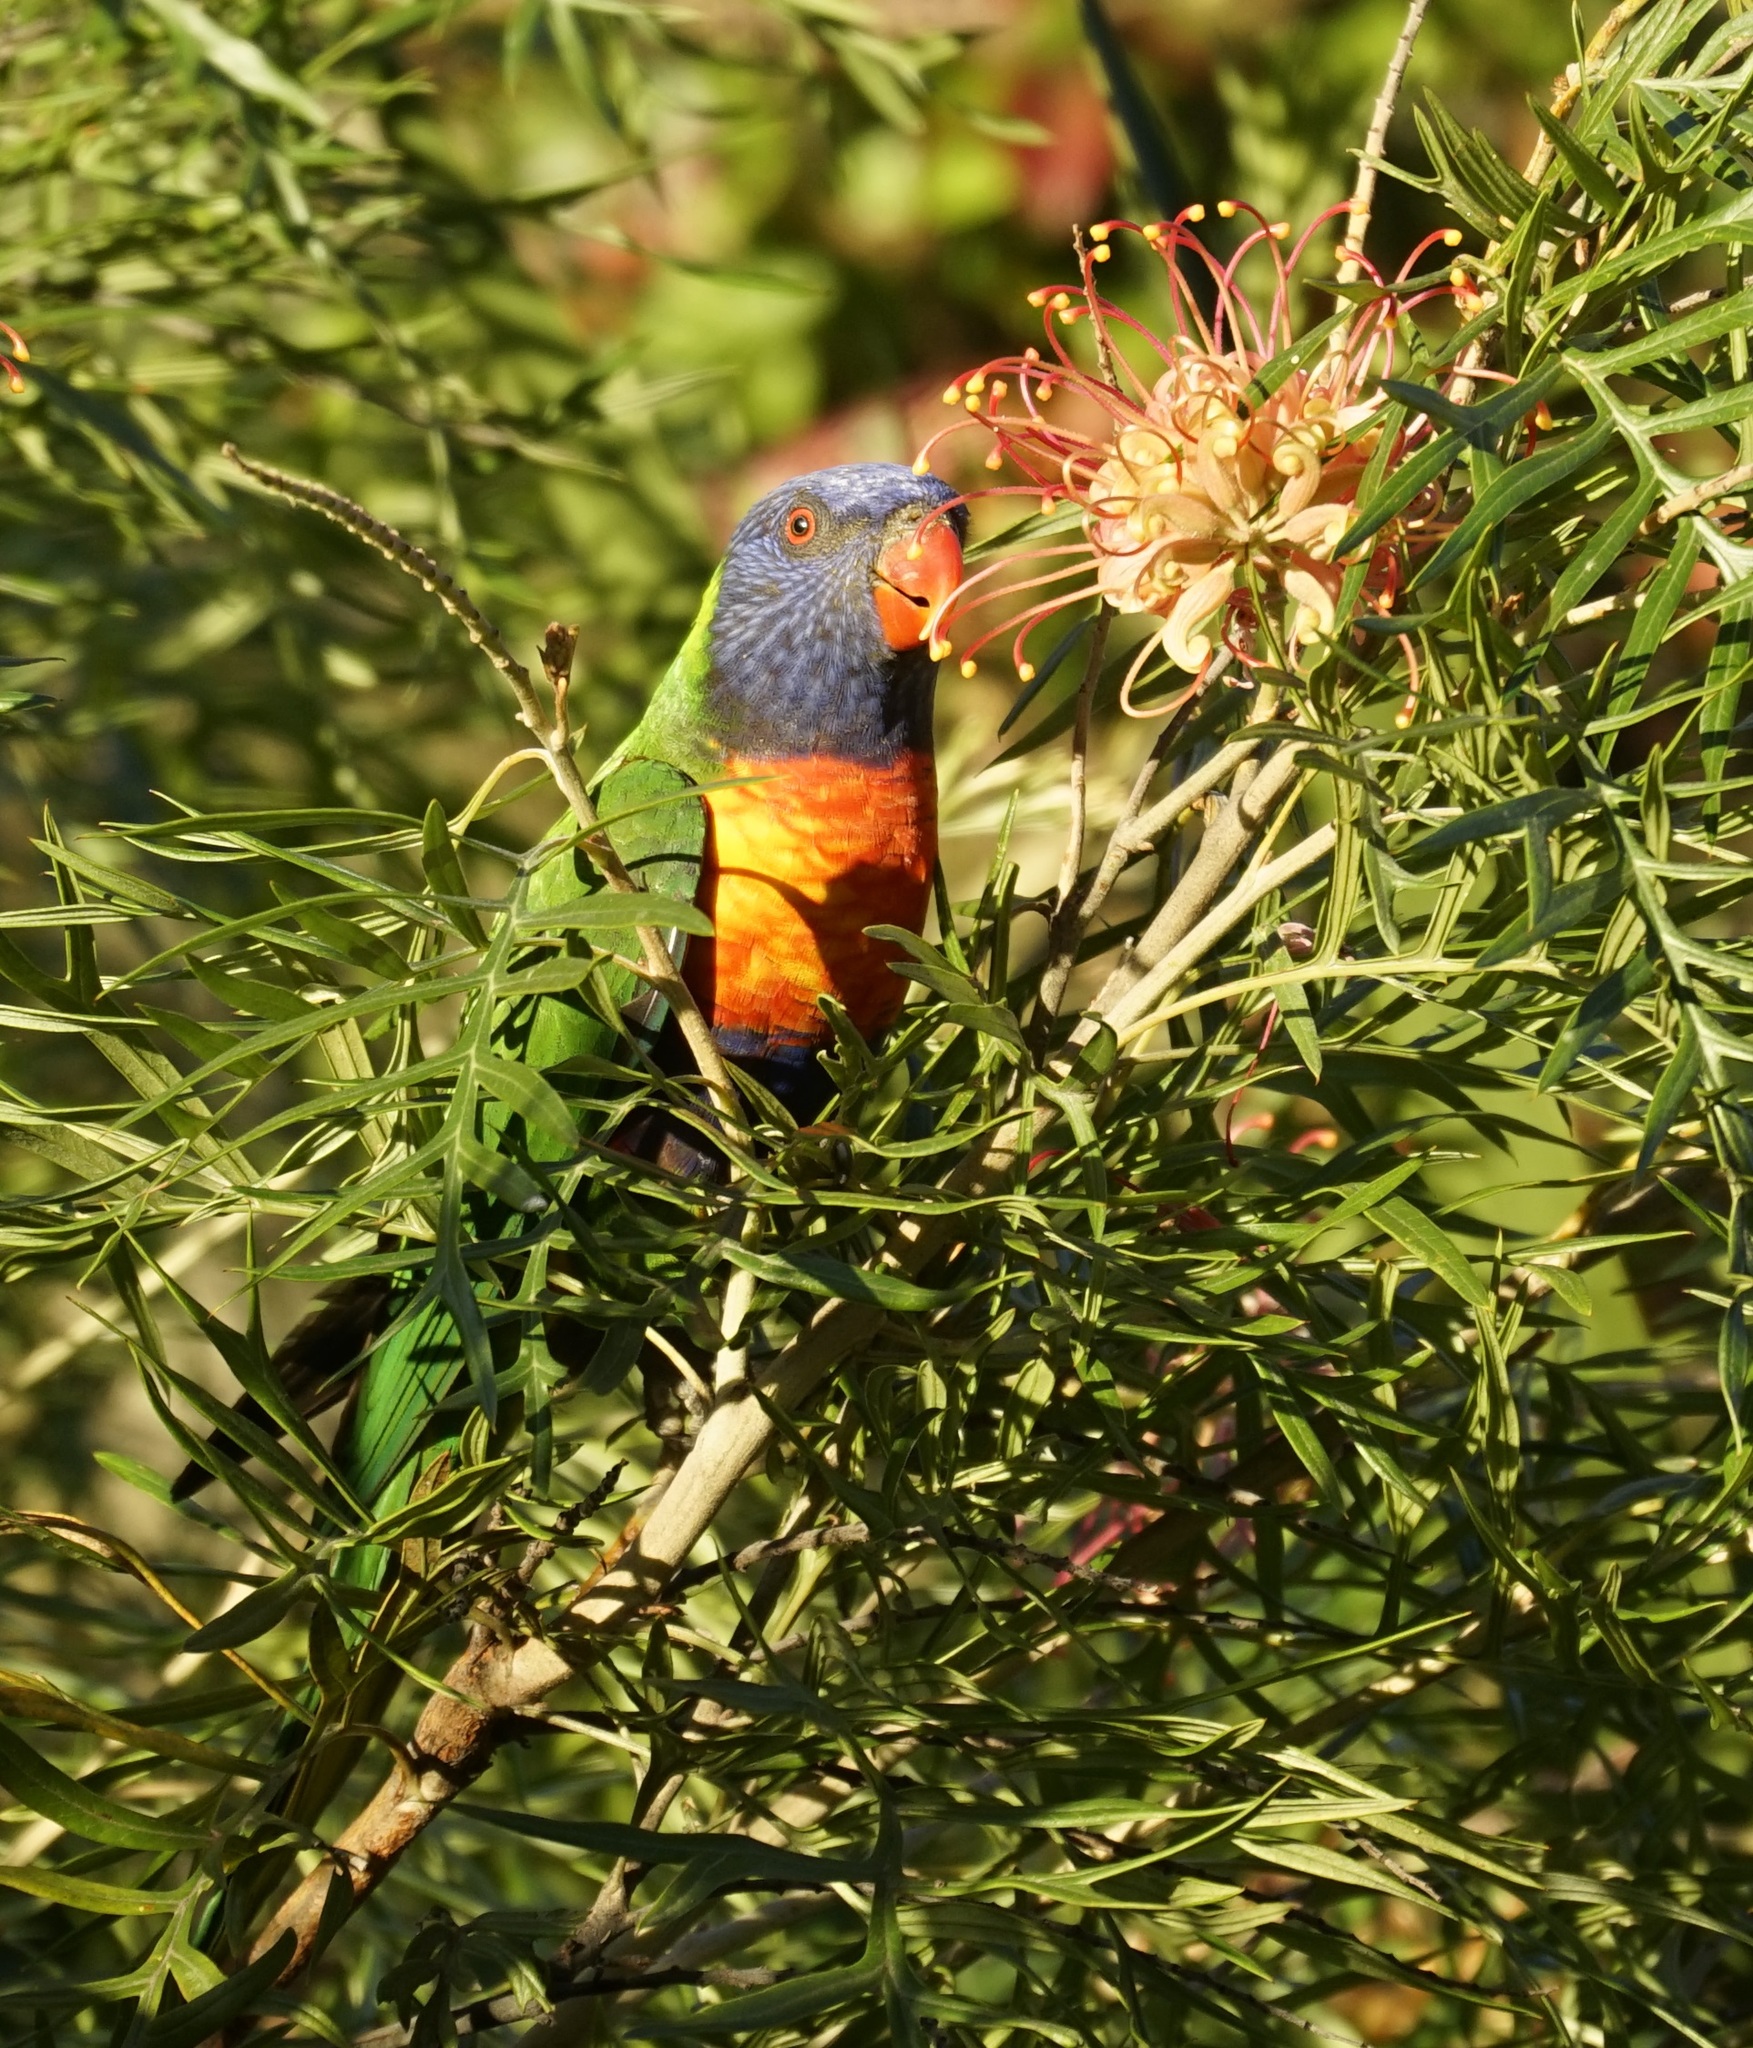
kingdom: Animalia
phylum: Chordata
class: Aves
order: Psittaciformes
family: Psittacidae
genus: Trichoglossus
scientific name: Trichoglossus haematodus
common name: Coconut lorikeet
